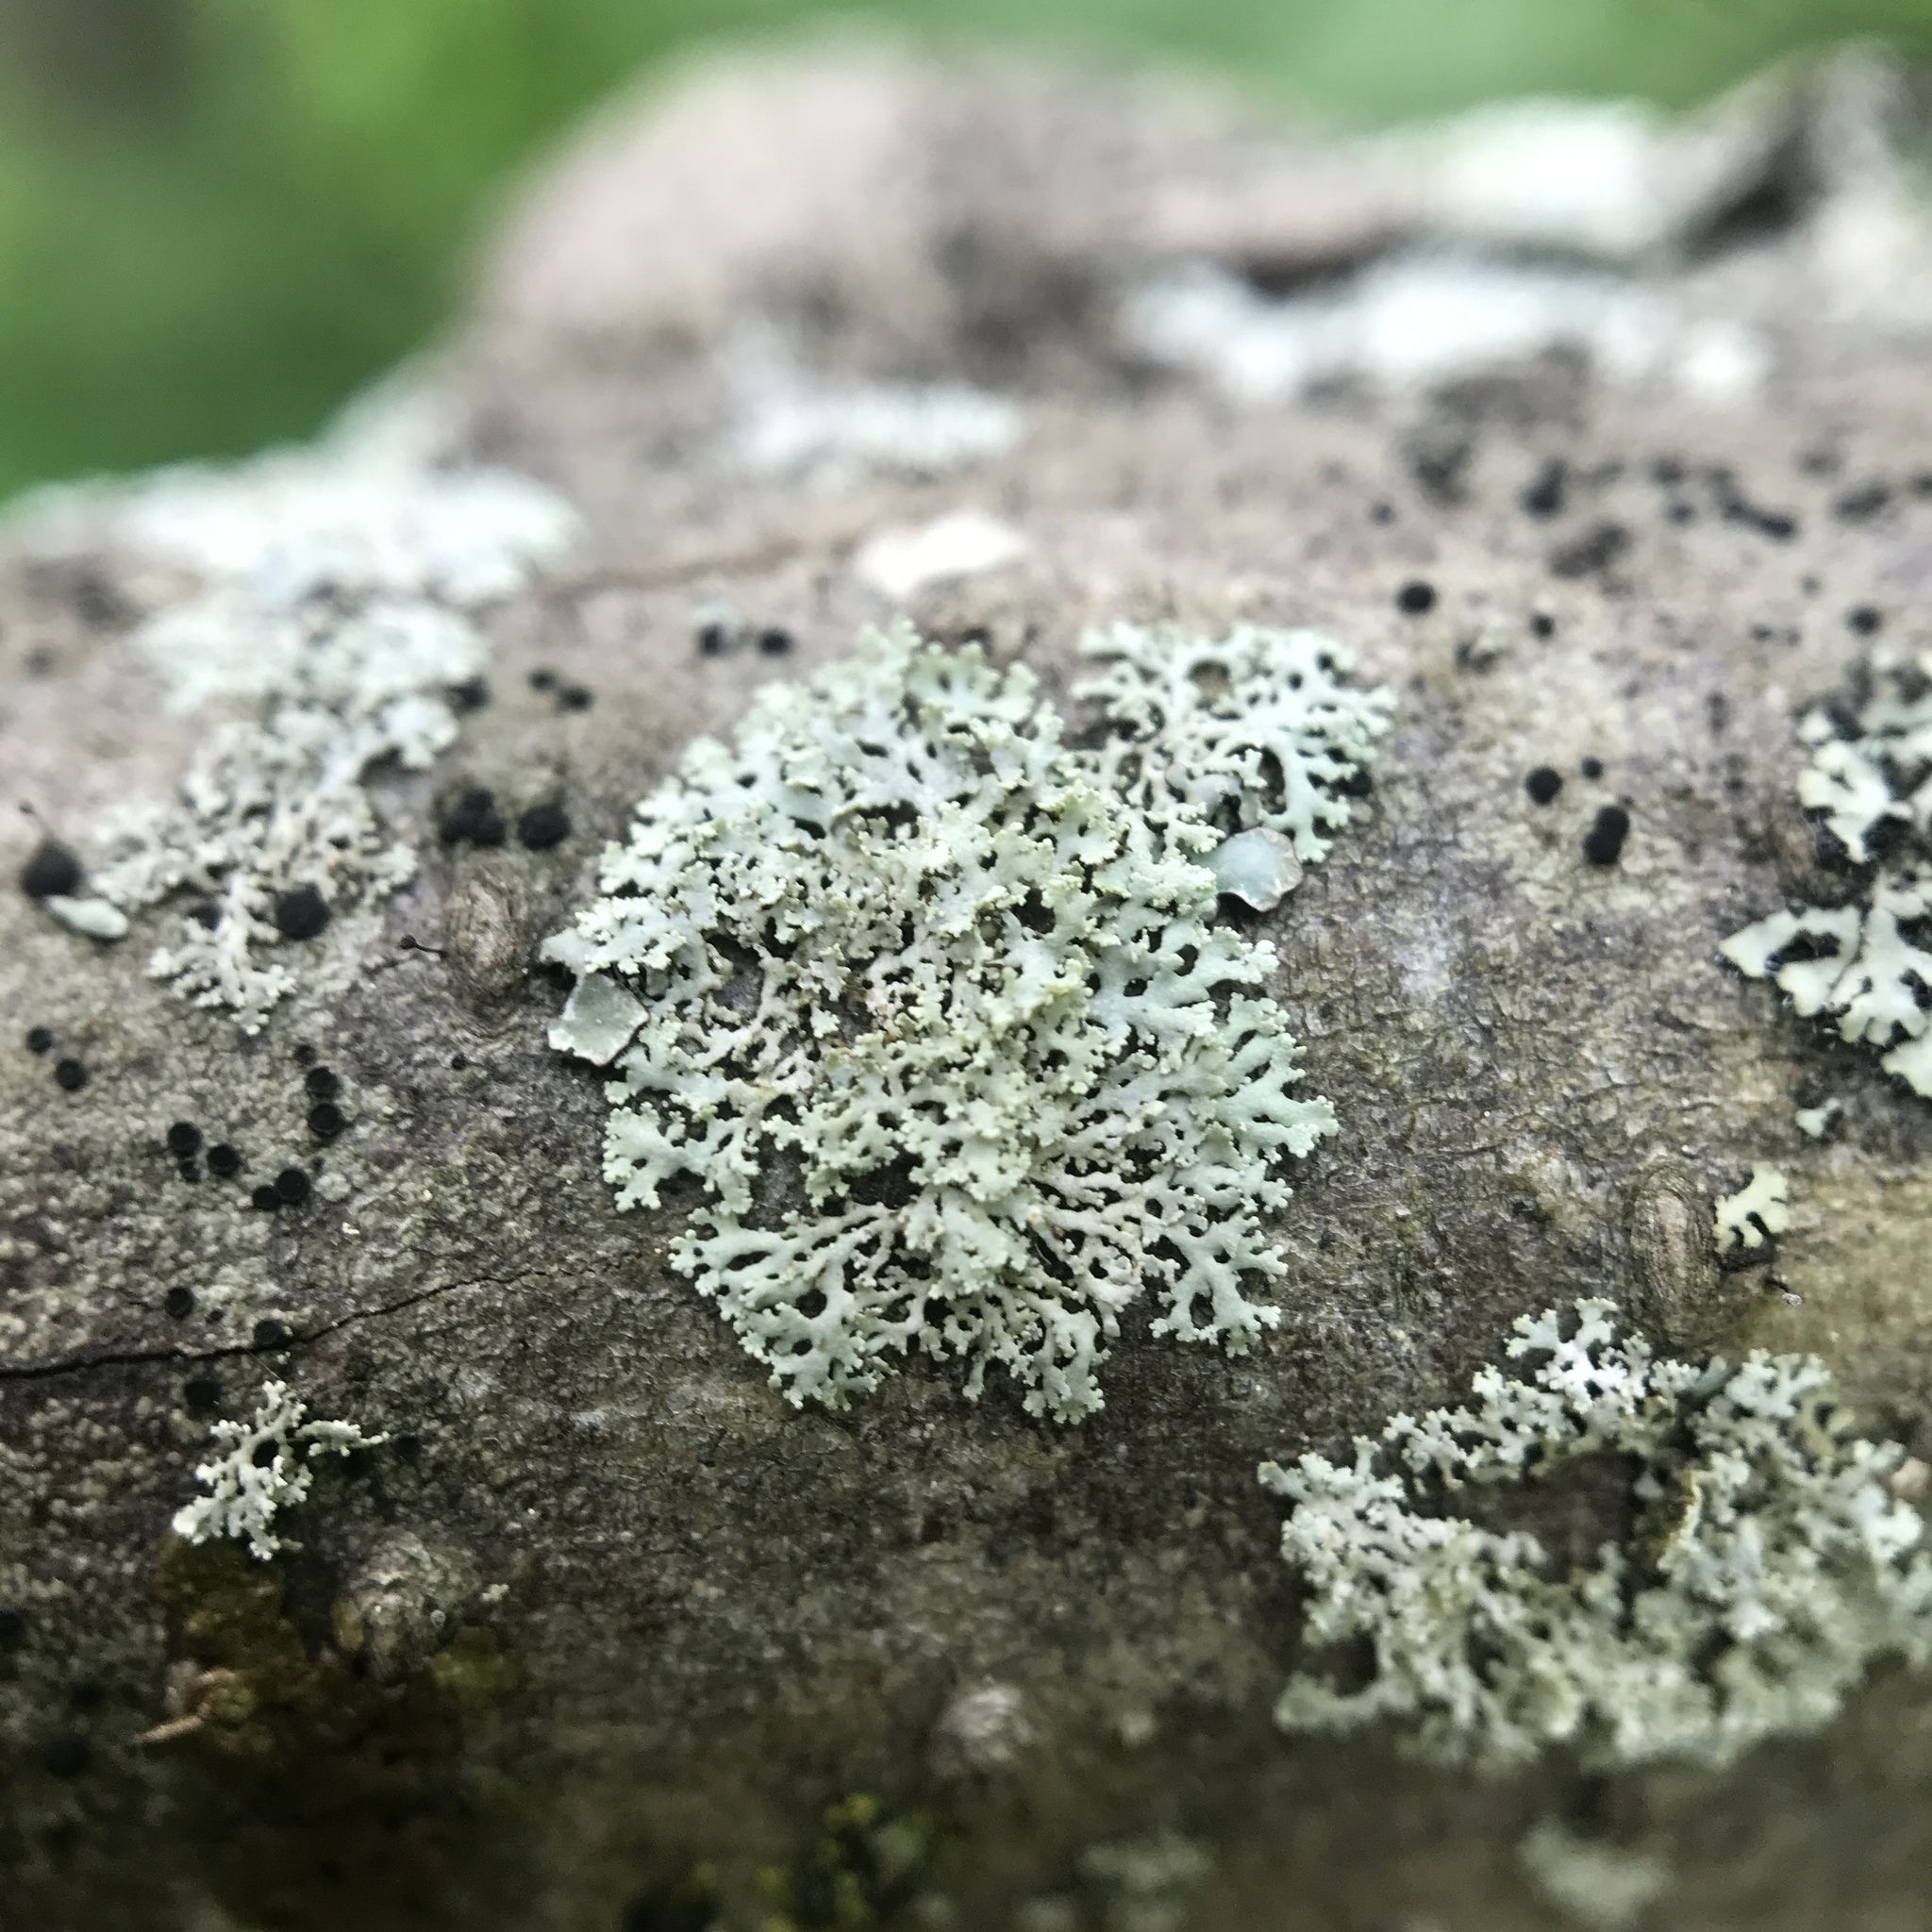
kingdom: Fungi
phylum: Ascomycota
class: Lecanoromycetes
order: Caliciales
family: Physciaceae
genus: Physcia
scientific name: Physcia millegrana
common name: Rosette lichen
